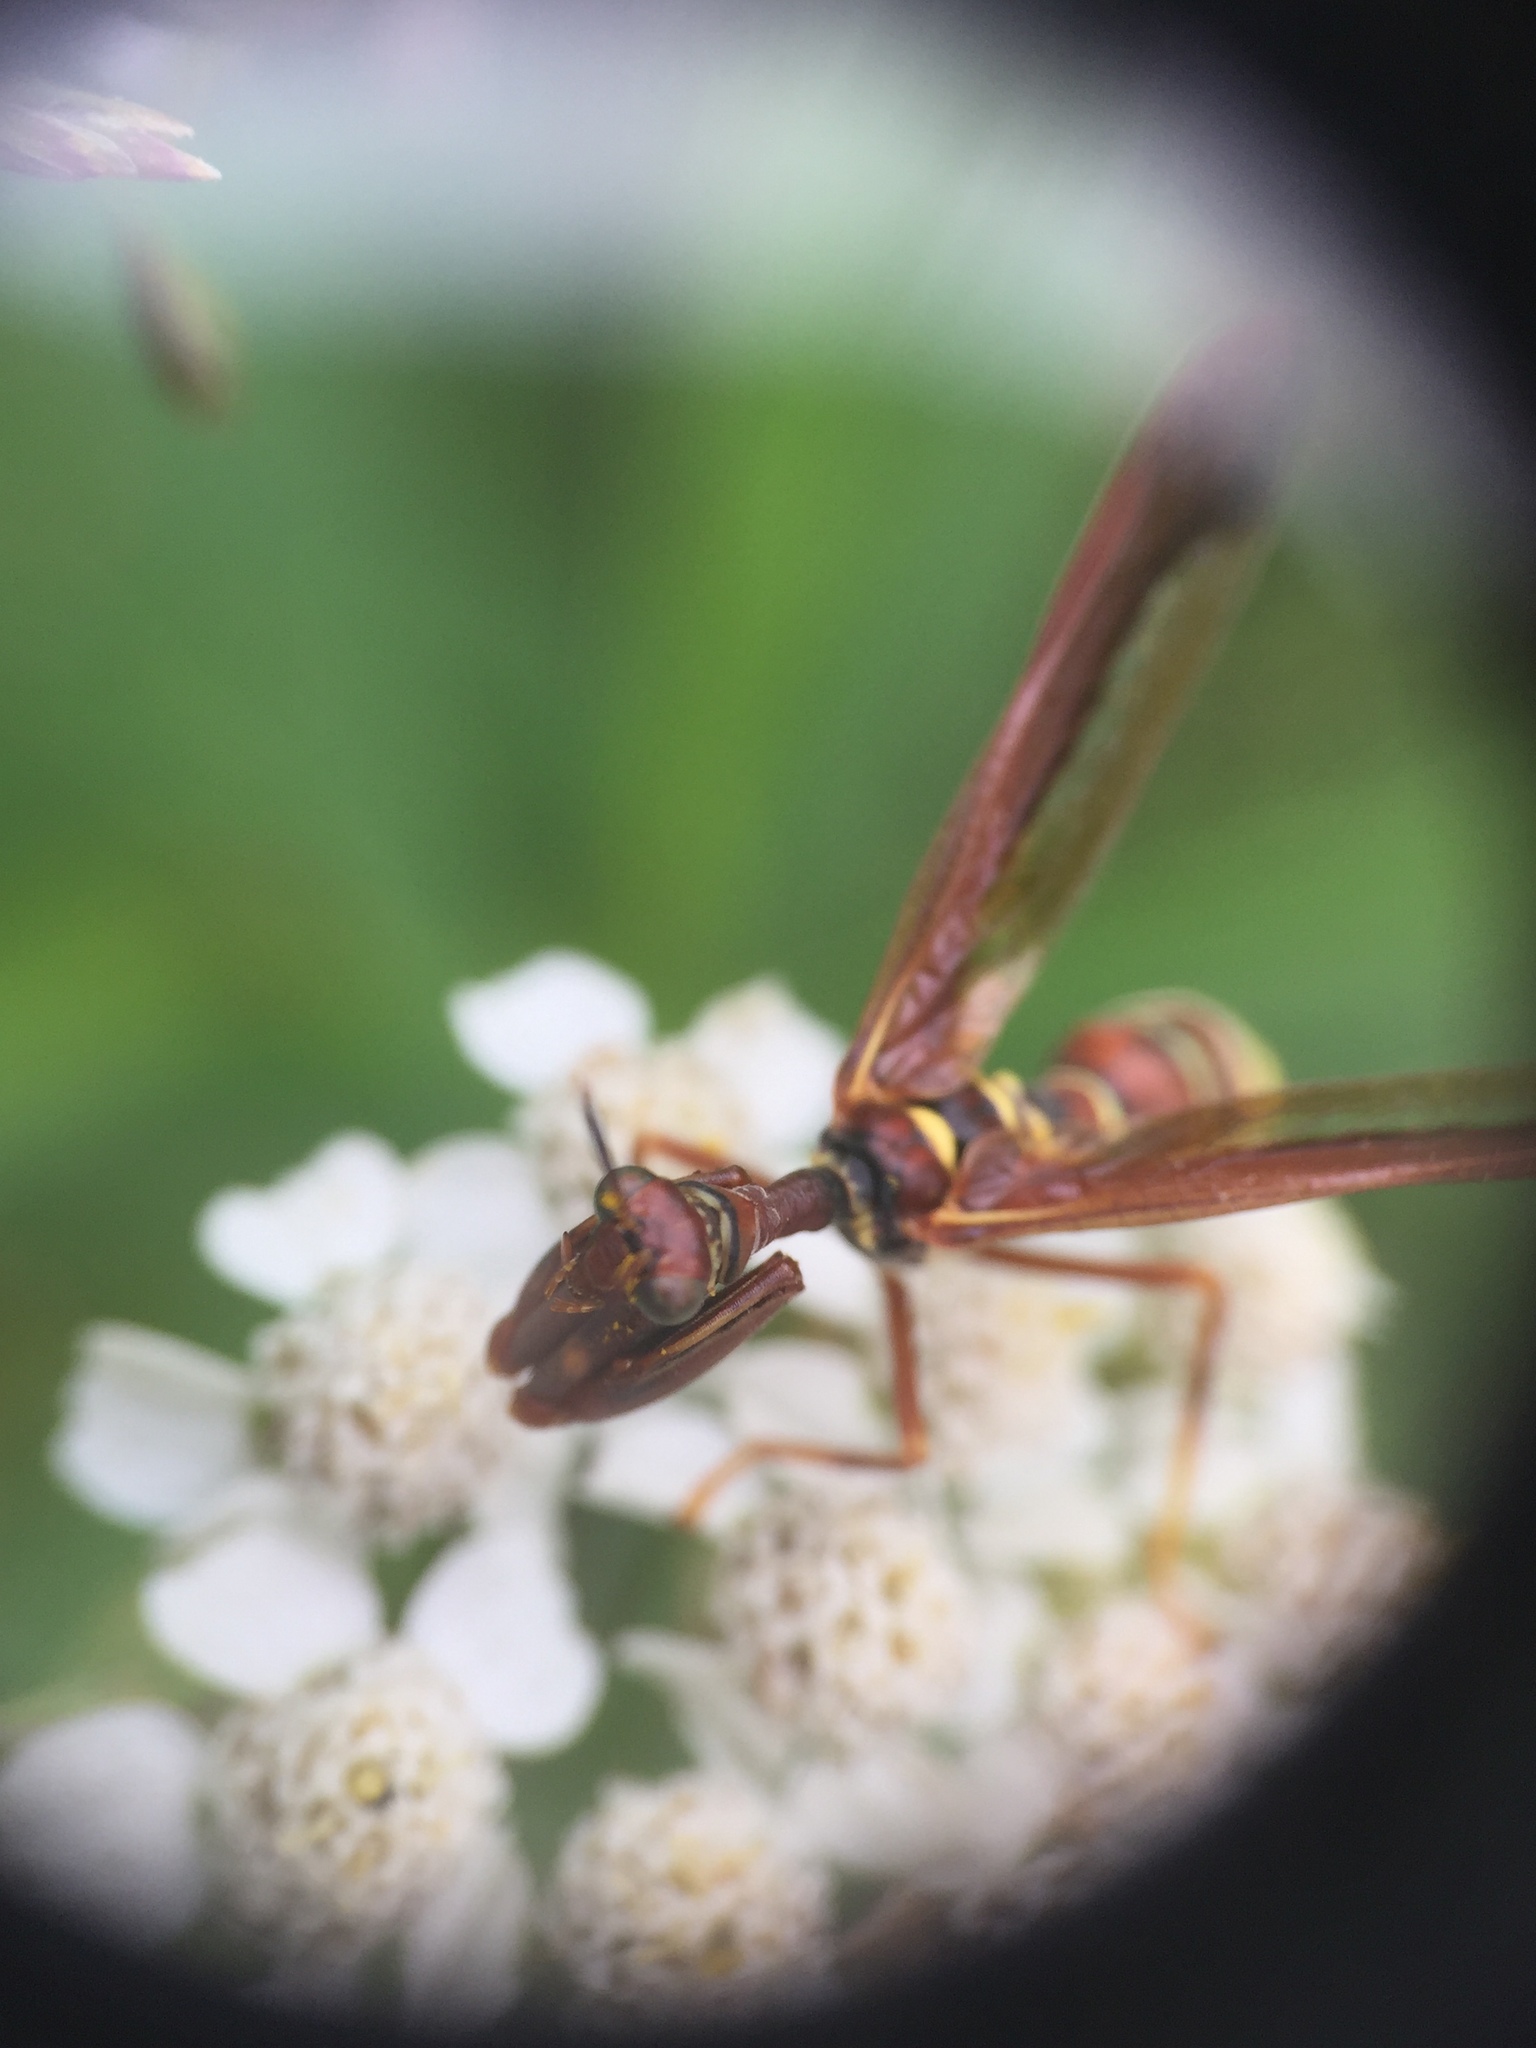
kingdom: Animalia
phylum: Arthropoda
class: Insecta
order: Neuroptera
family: Mantispidae
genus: Climaciella
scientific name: Climaciella brunnea
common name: Brown wasp mantidfly
